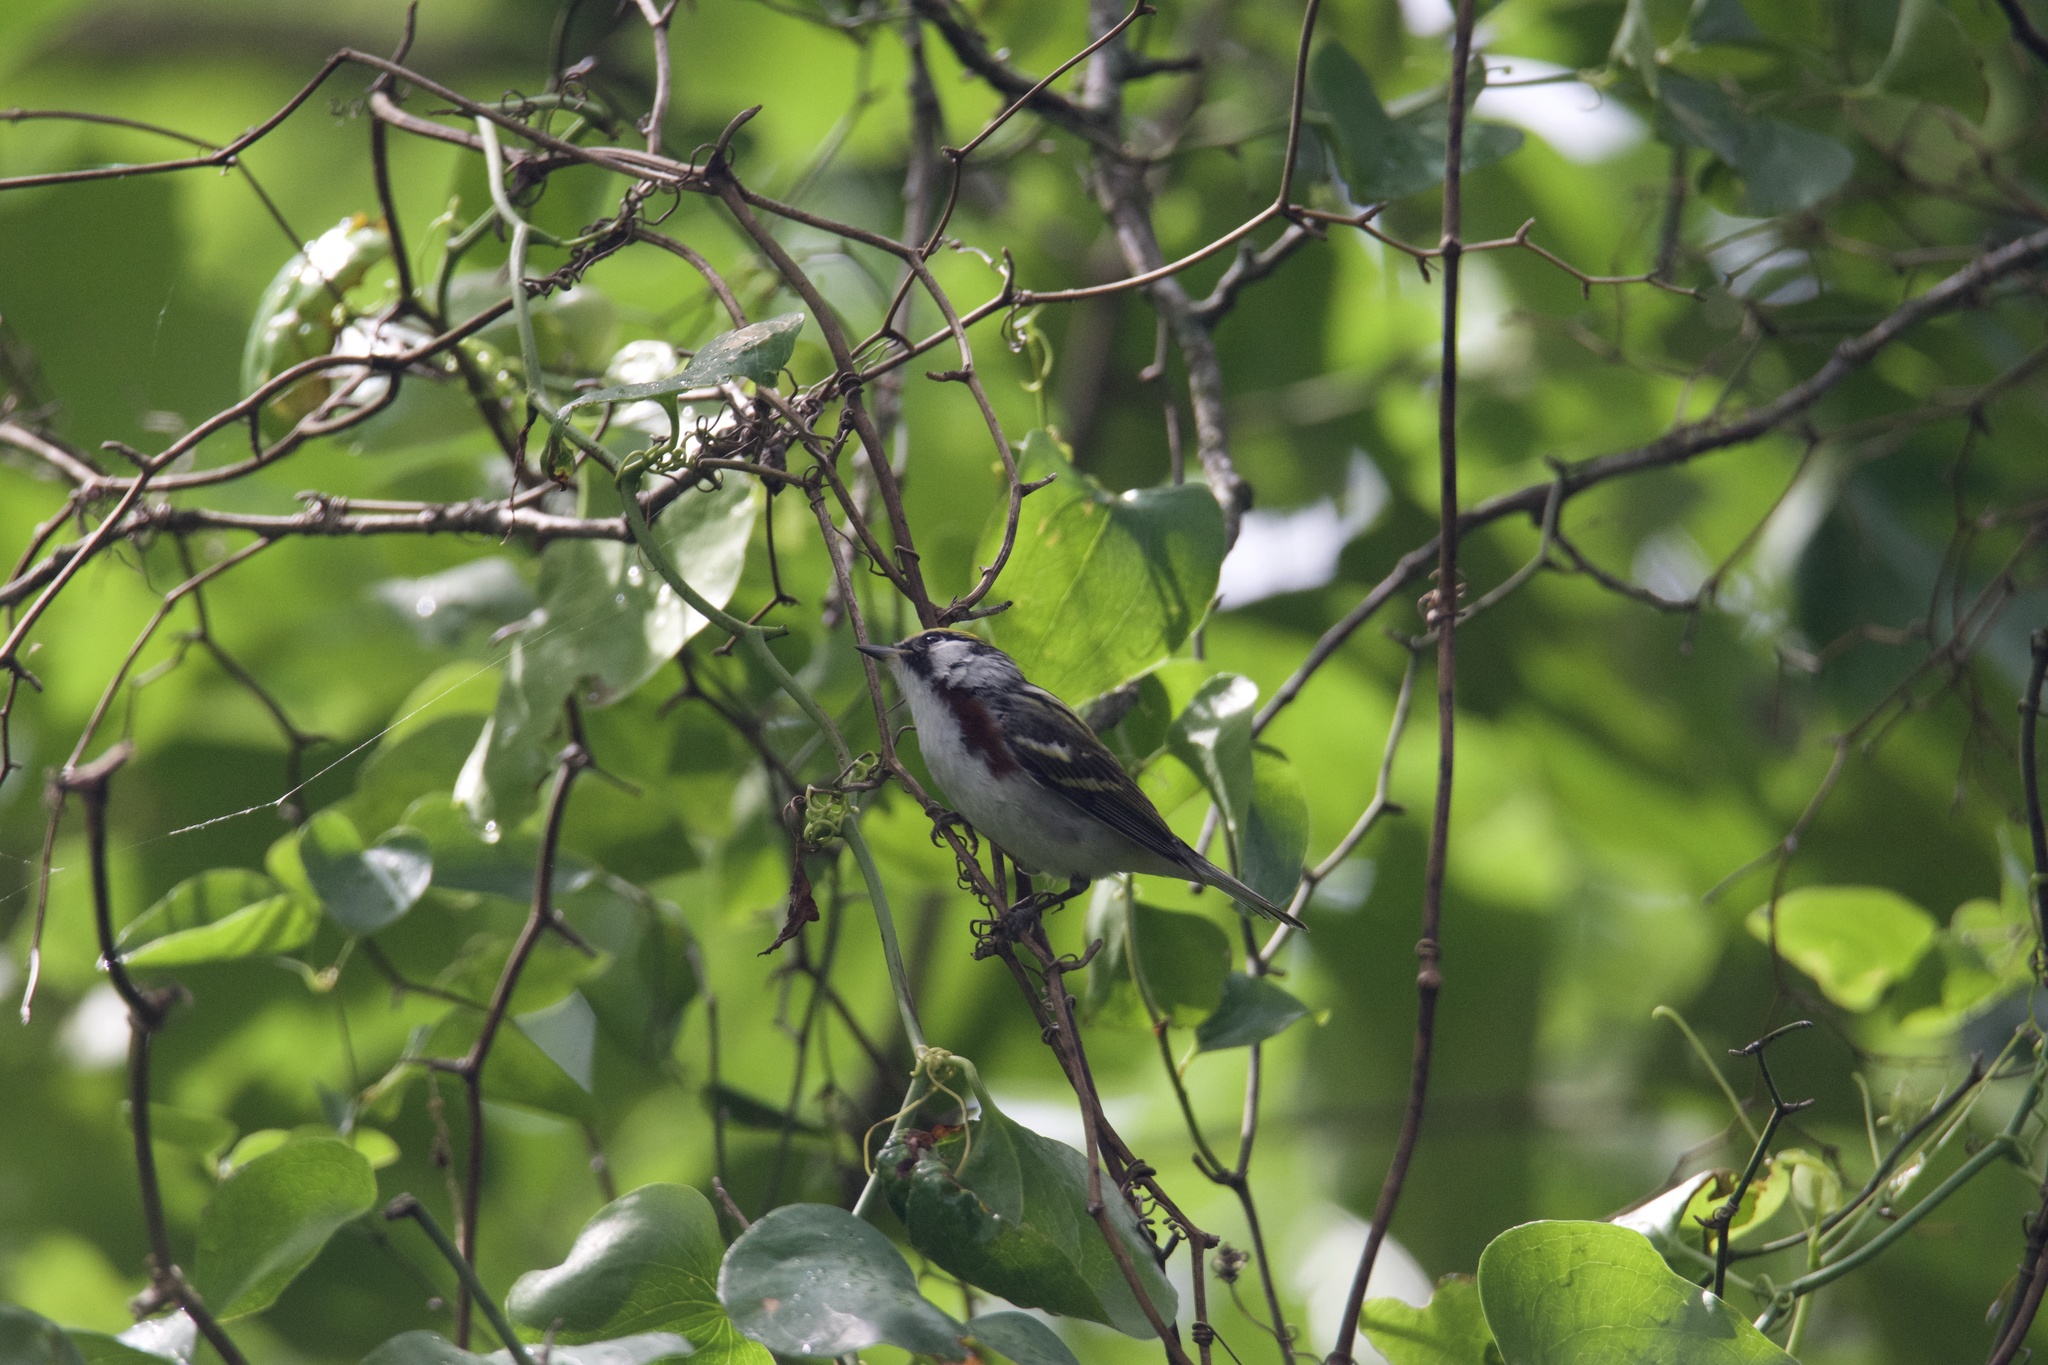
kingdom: Animalia
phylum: Chordata
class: Aves
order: Passeriformes
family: Parulidae
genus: Setophaga
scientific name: Setophaga pensylvanica
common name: Chestnut-sided warbler
